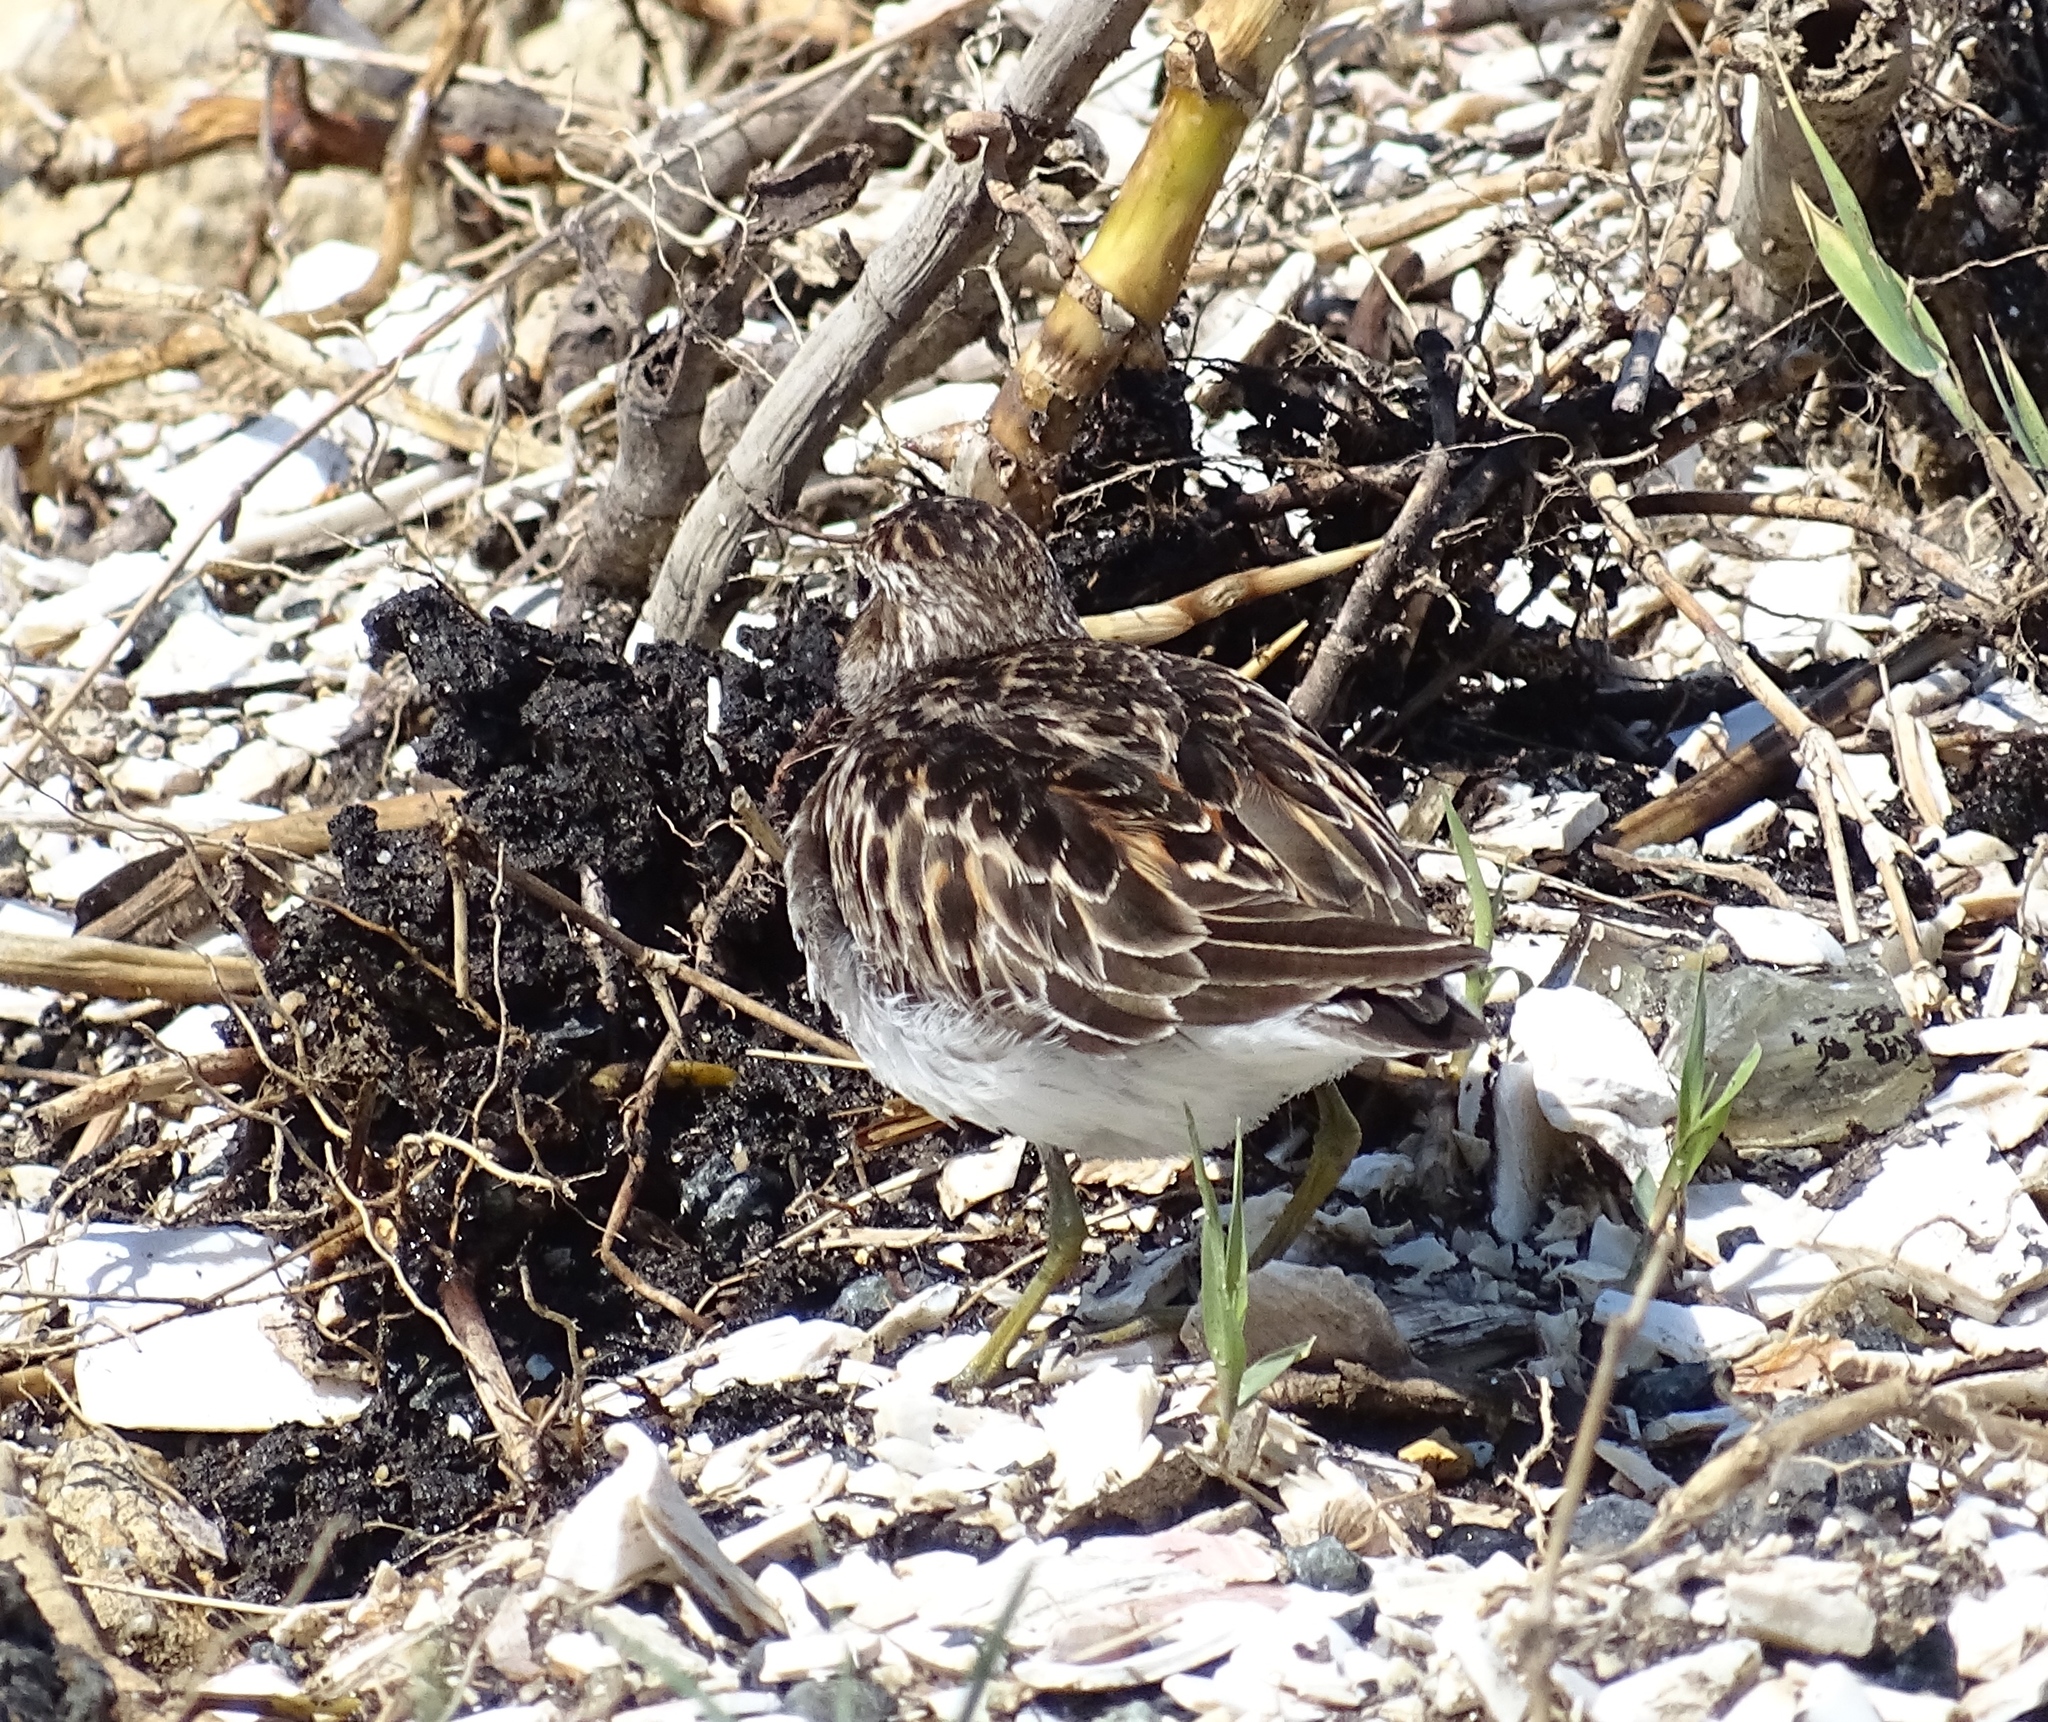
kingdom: Animalia
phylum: Chordata
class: Aves
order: Charadriiformes
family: Scolopacidae
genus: Calidris
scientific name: Calidris minutilla
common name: Least sandpiper
